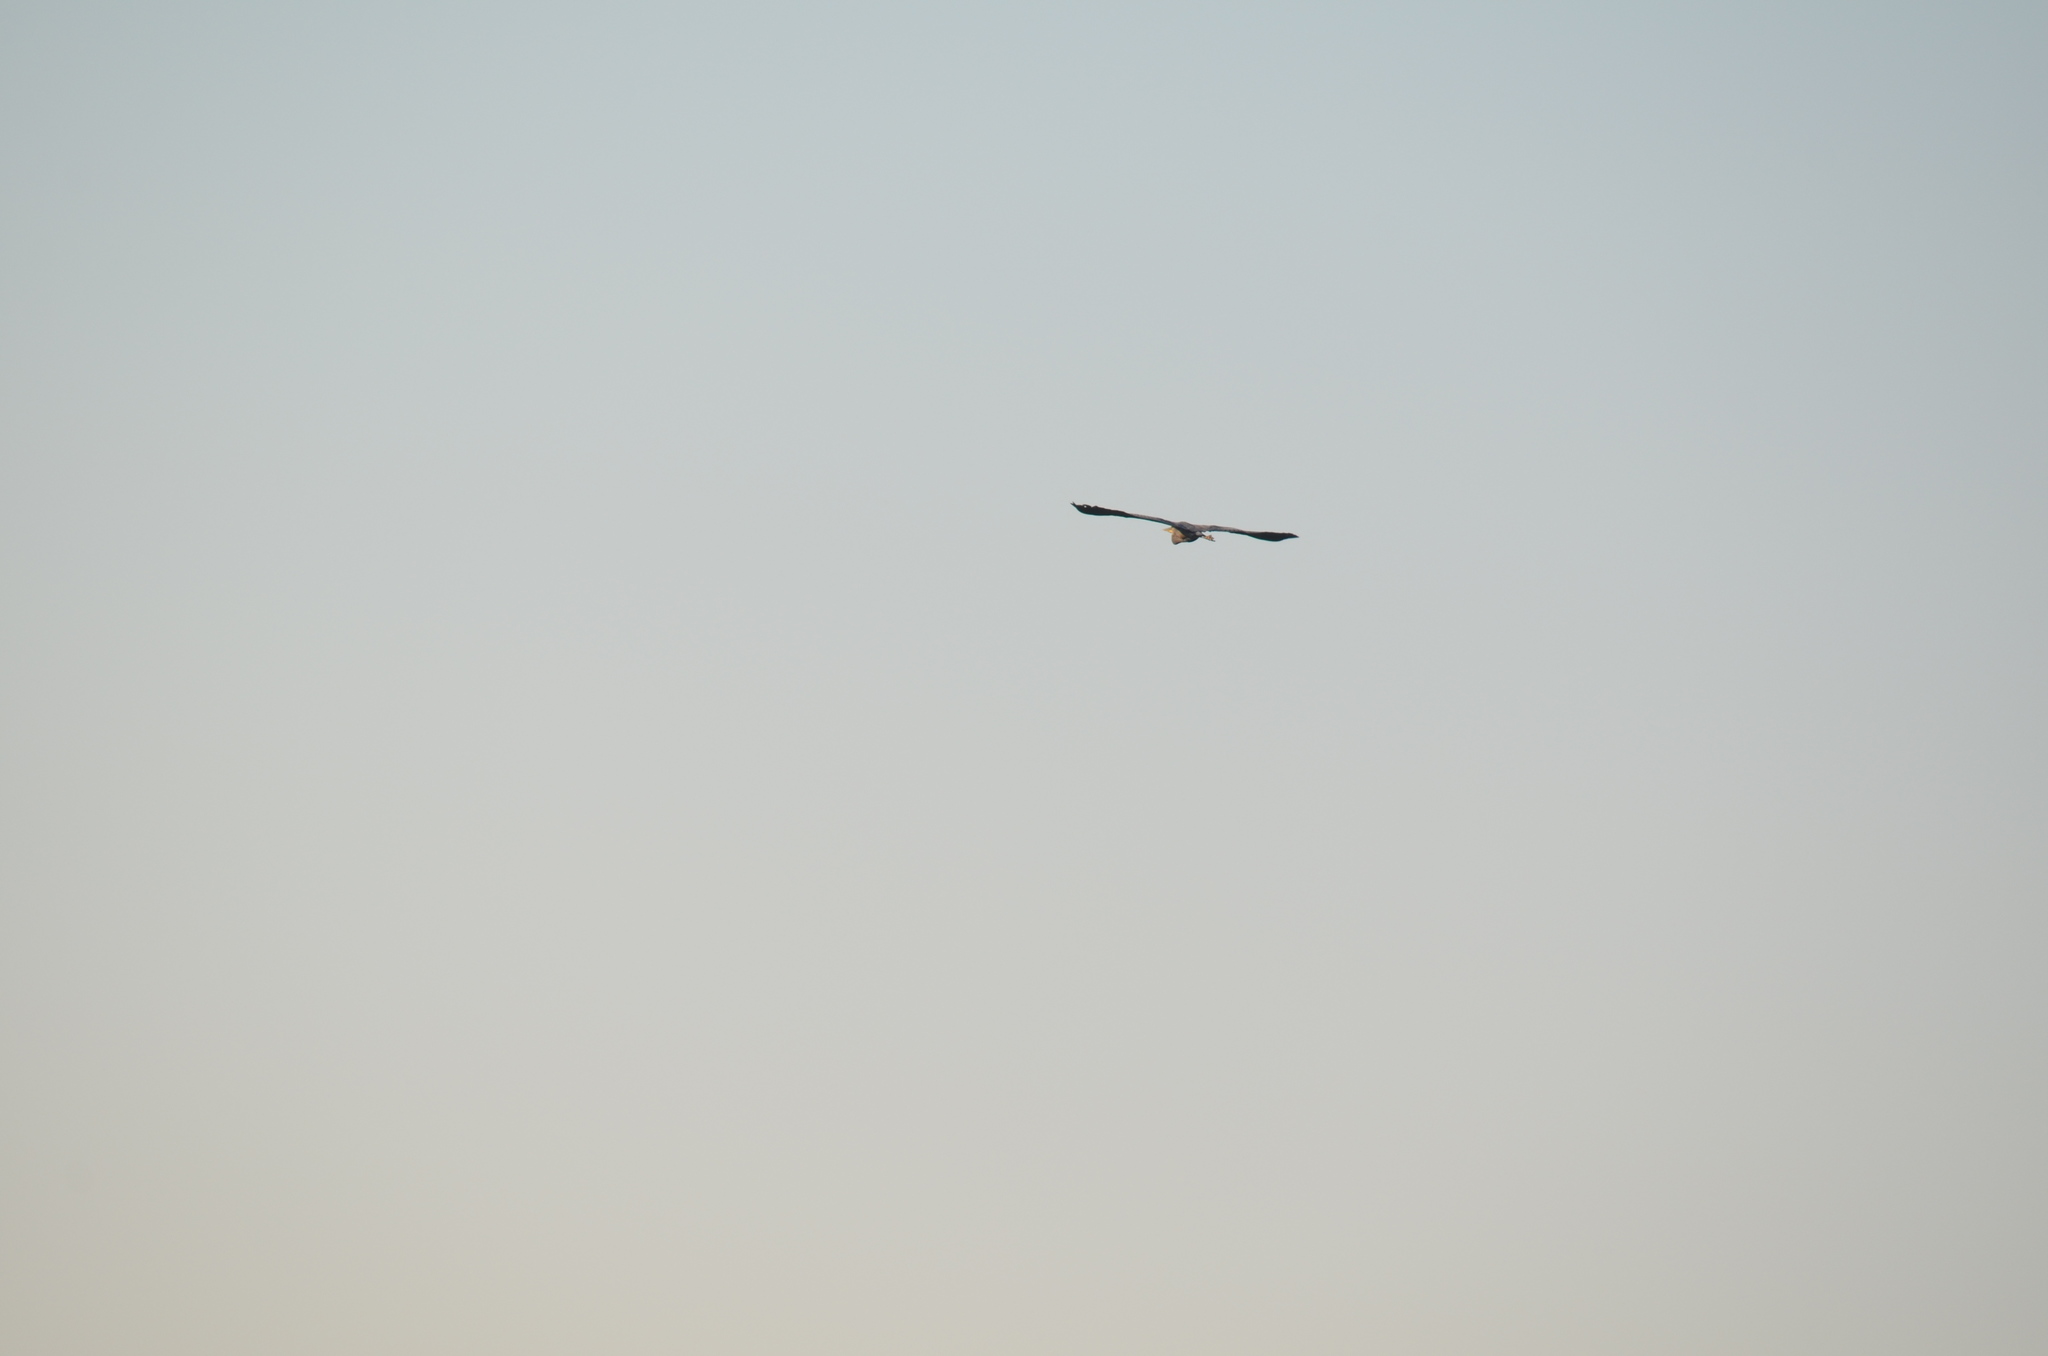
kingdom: Animalia
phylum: Chordata
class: Aves
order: Pelecaniformes
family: Ardeidae
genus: Ardea
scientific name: Ardea herodias
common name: Great blue heron
